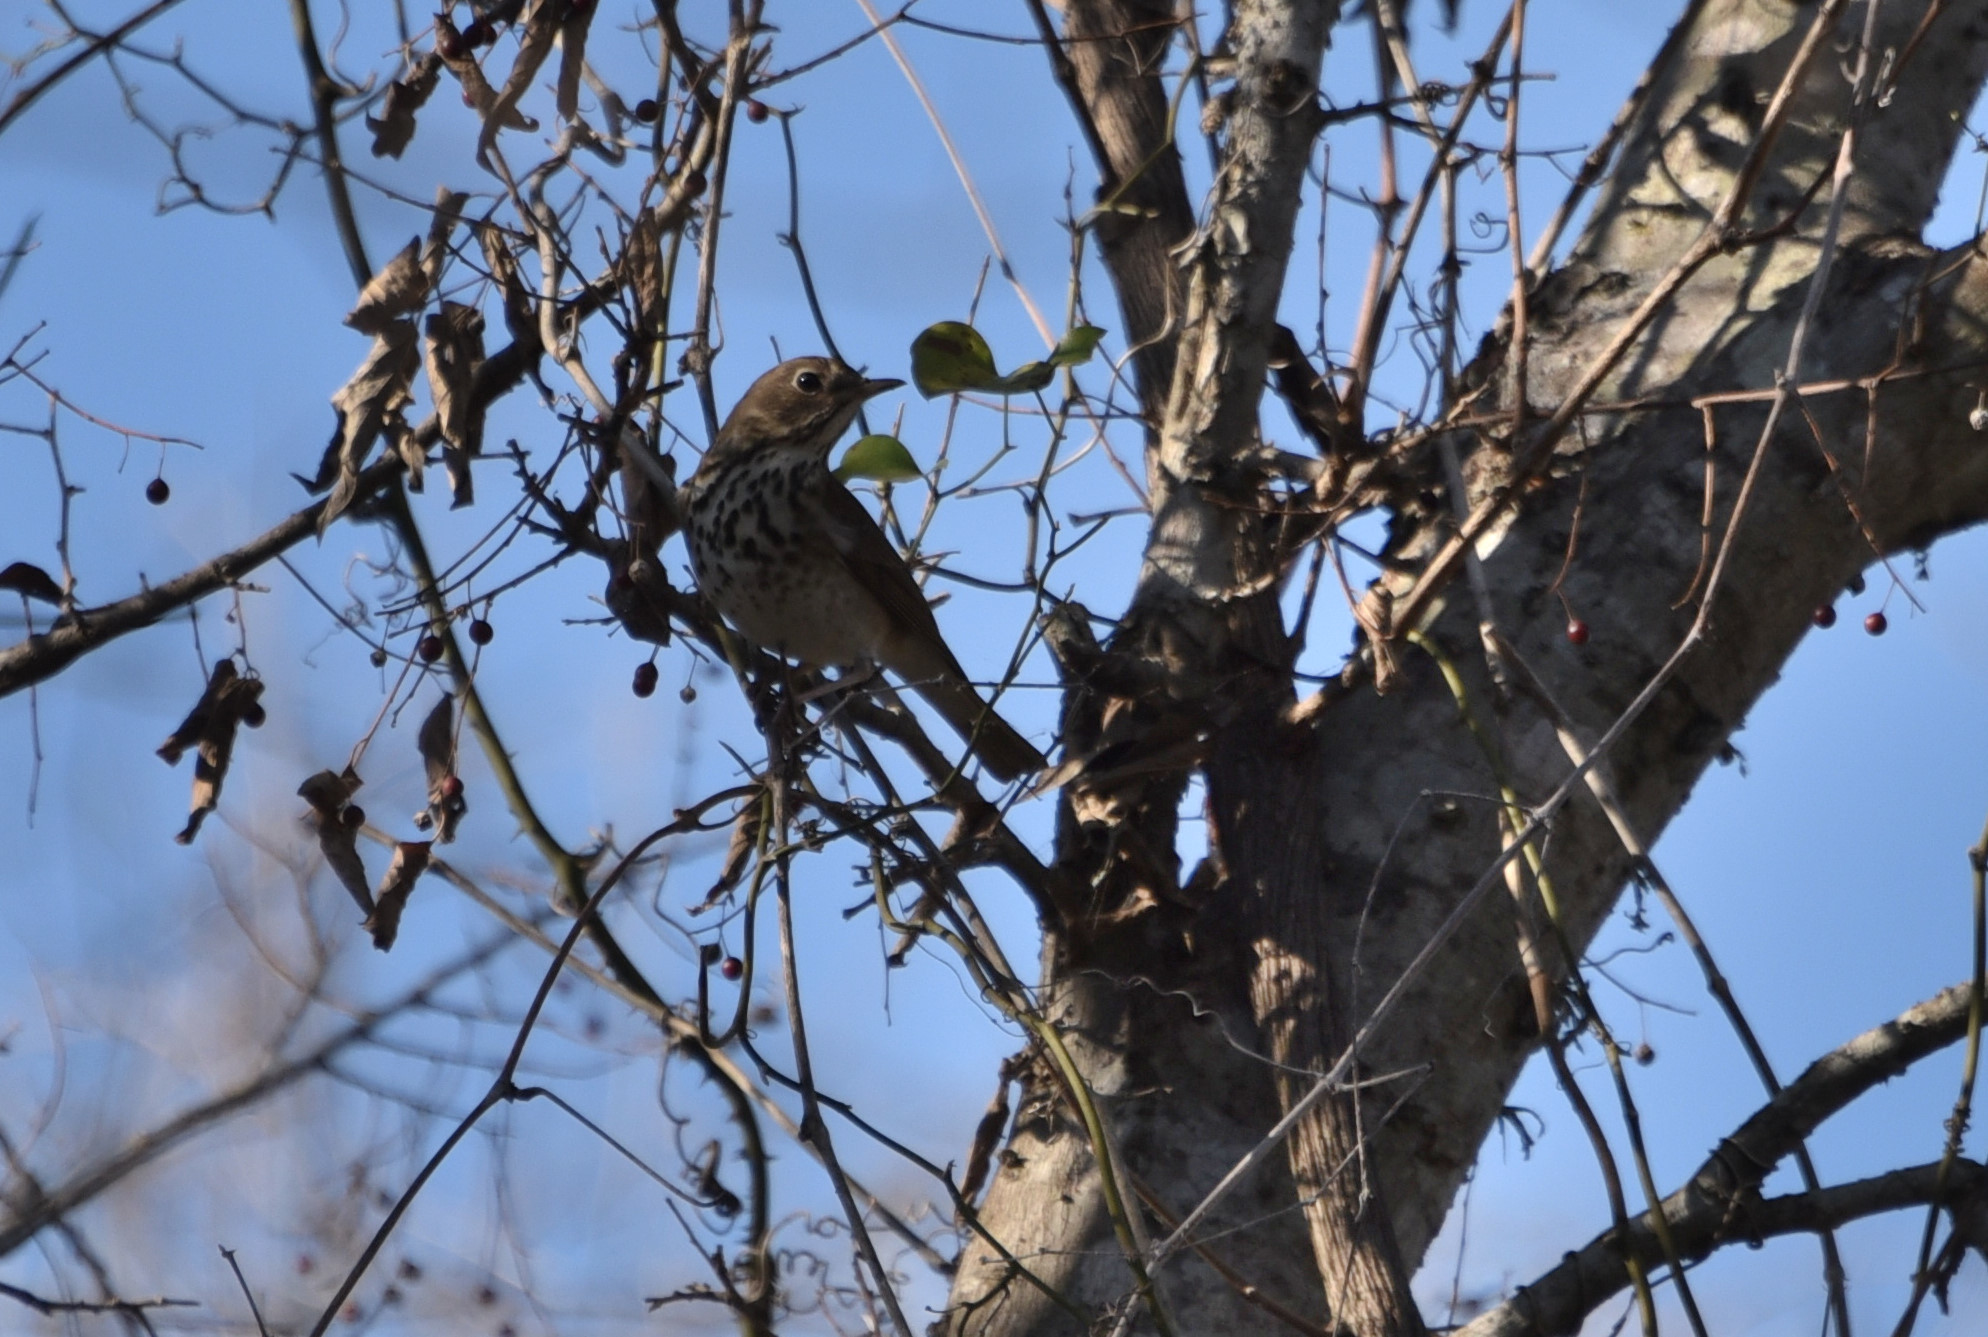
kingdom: Animalia
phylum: Chordata
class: Aves
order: Passeriformes
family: Turdidae
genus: Catharus
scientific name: Catharus guttatus
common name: Hermit thrush
